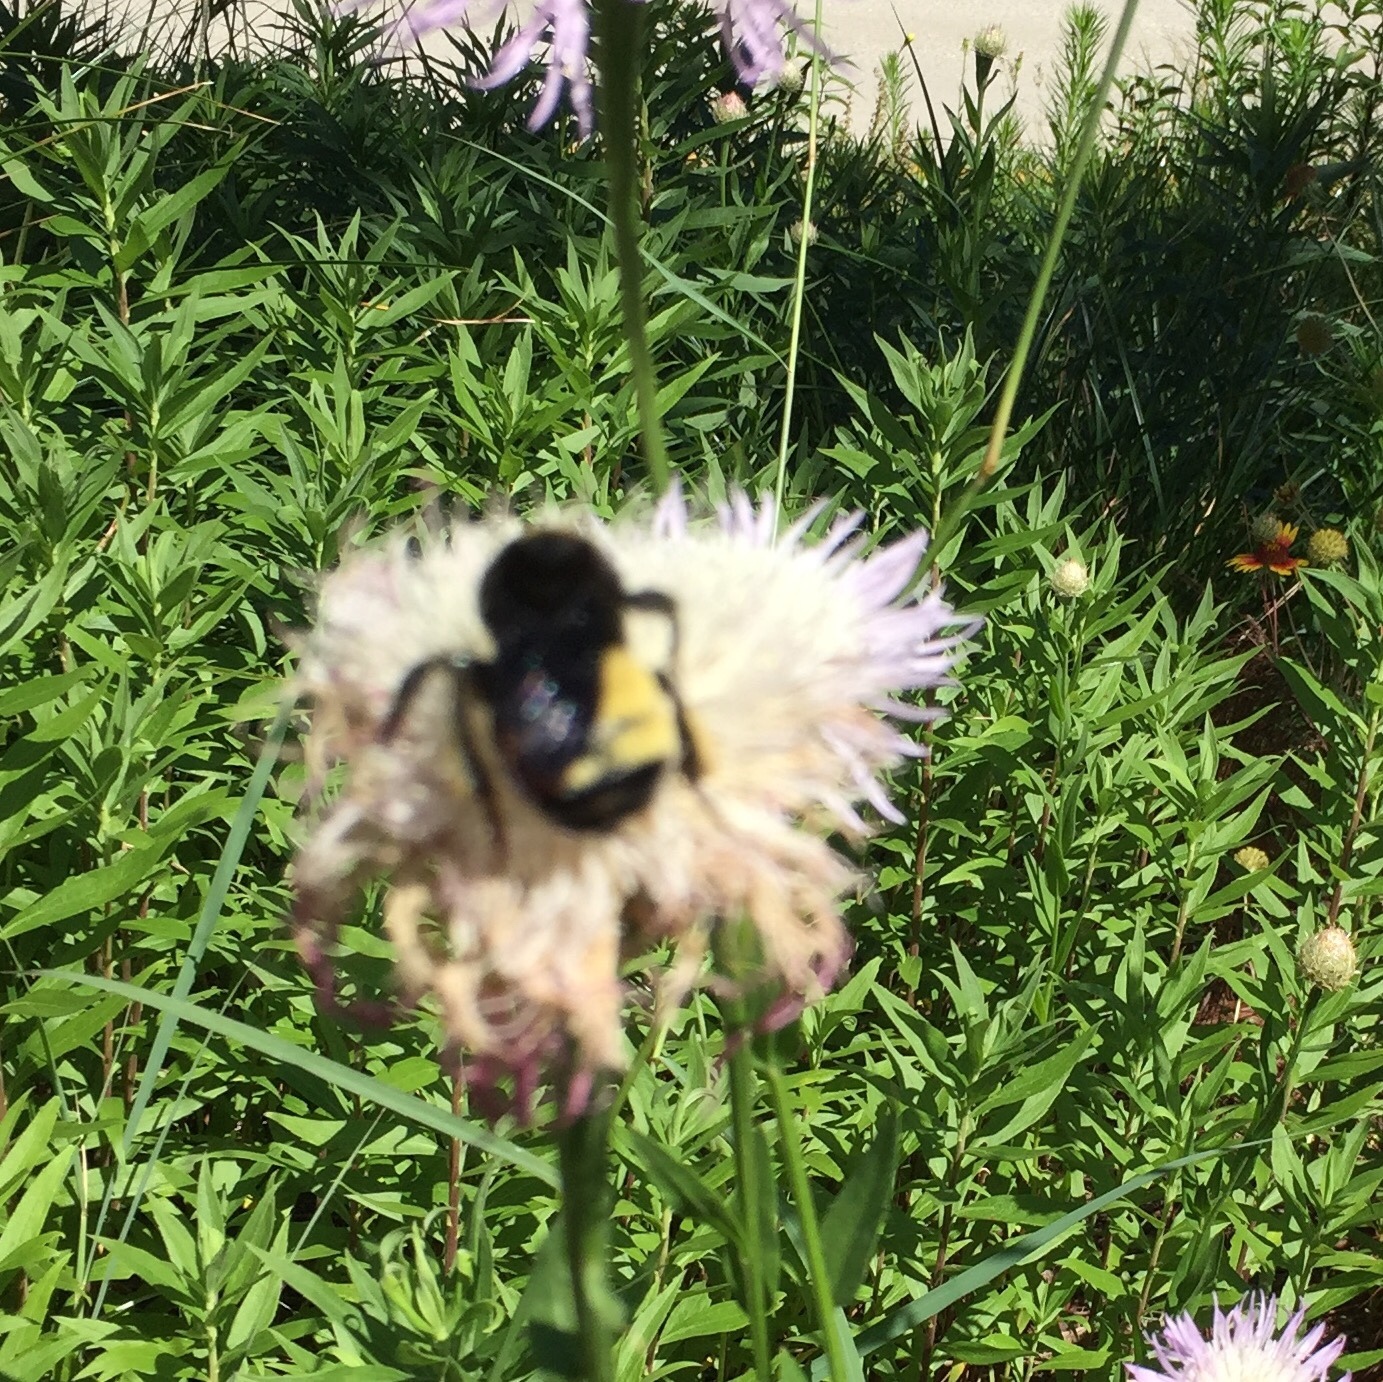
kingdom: Animalia
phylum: Arthropoda
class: Insecta
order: Hymenoptera
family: Apidae
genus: Bombus
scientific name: Bombus pensylvanicus
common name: Bumble bee
